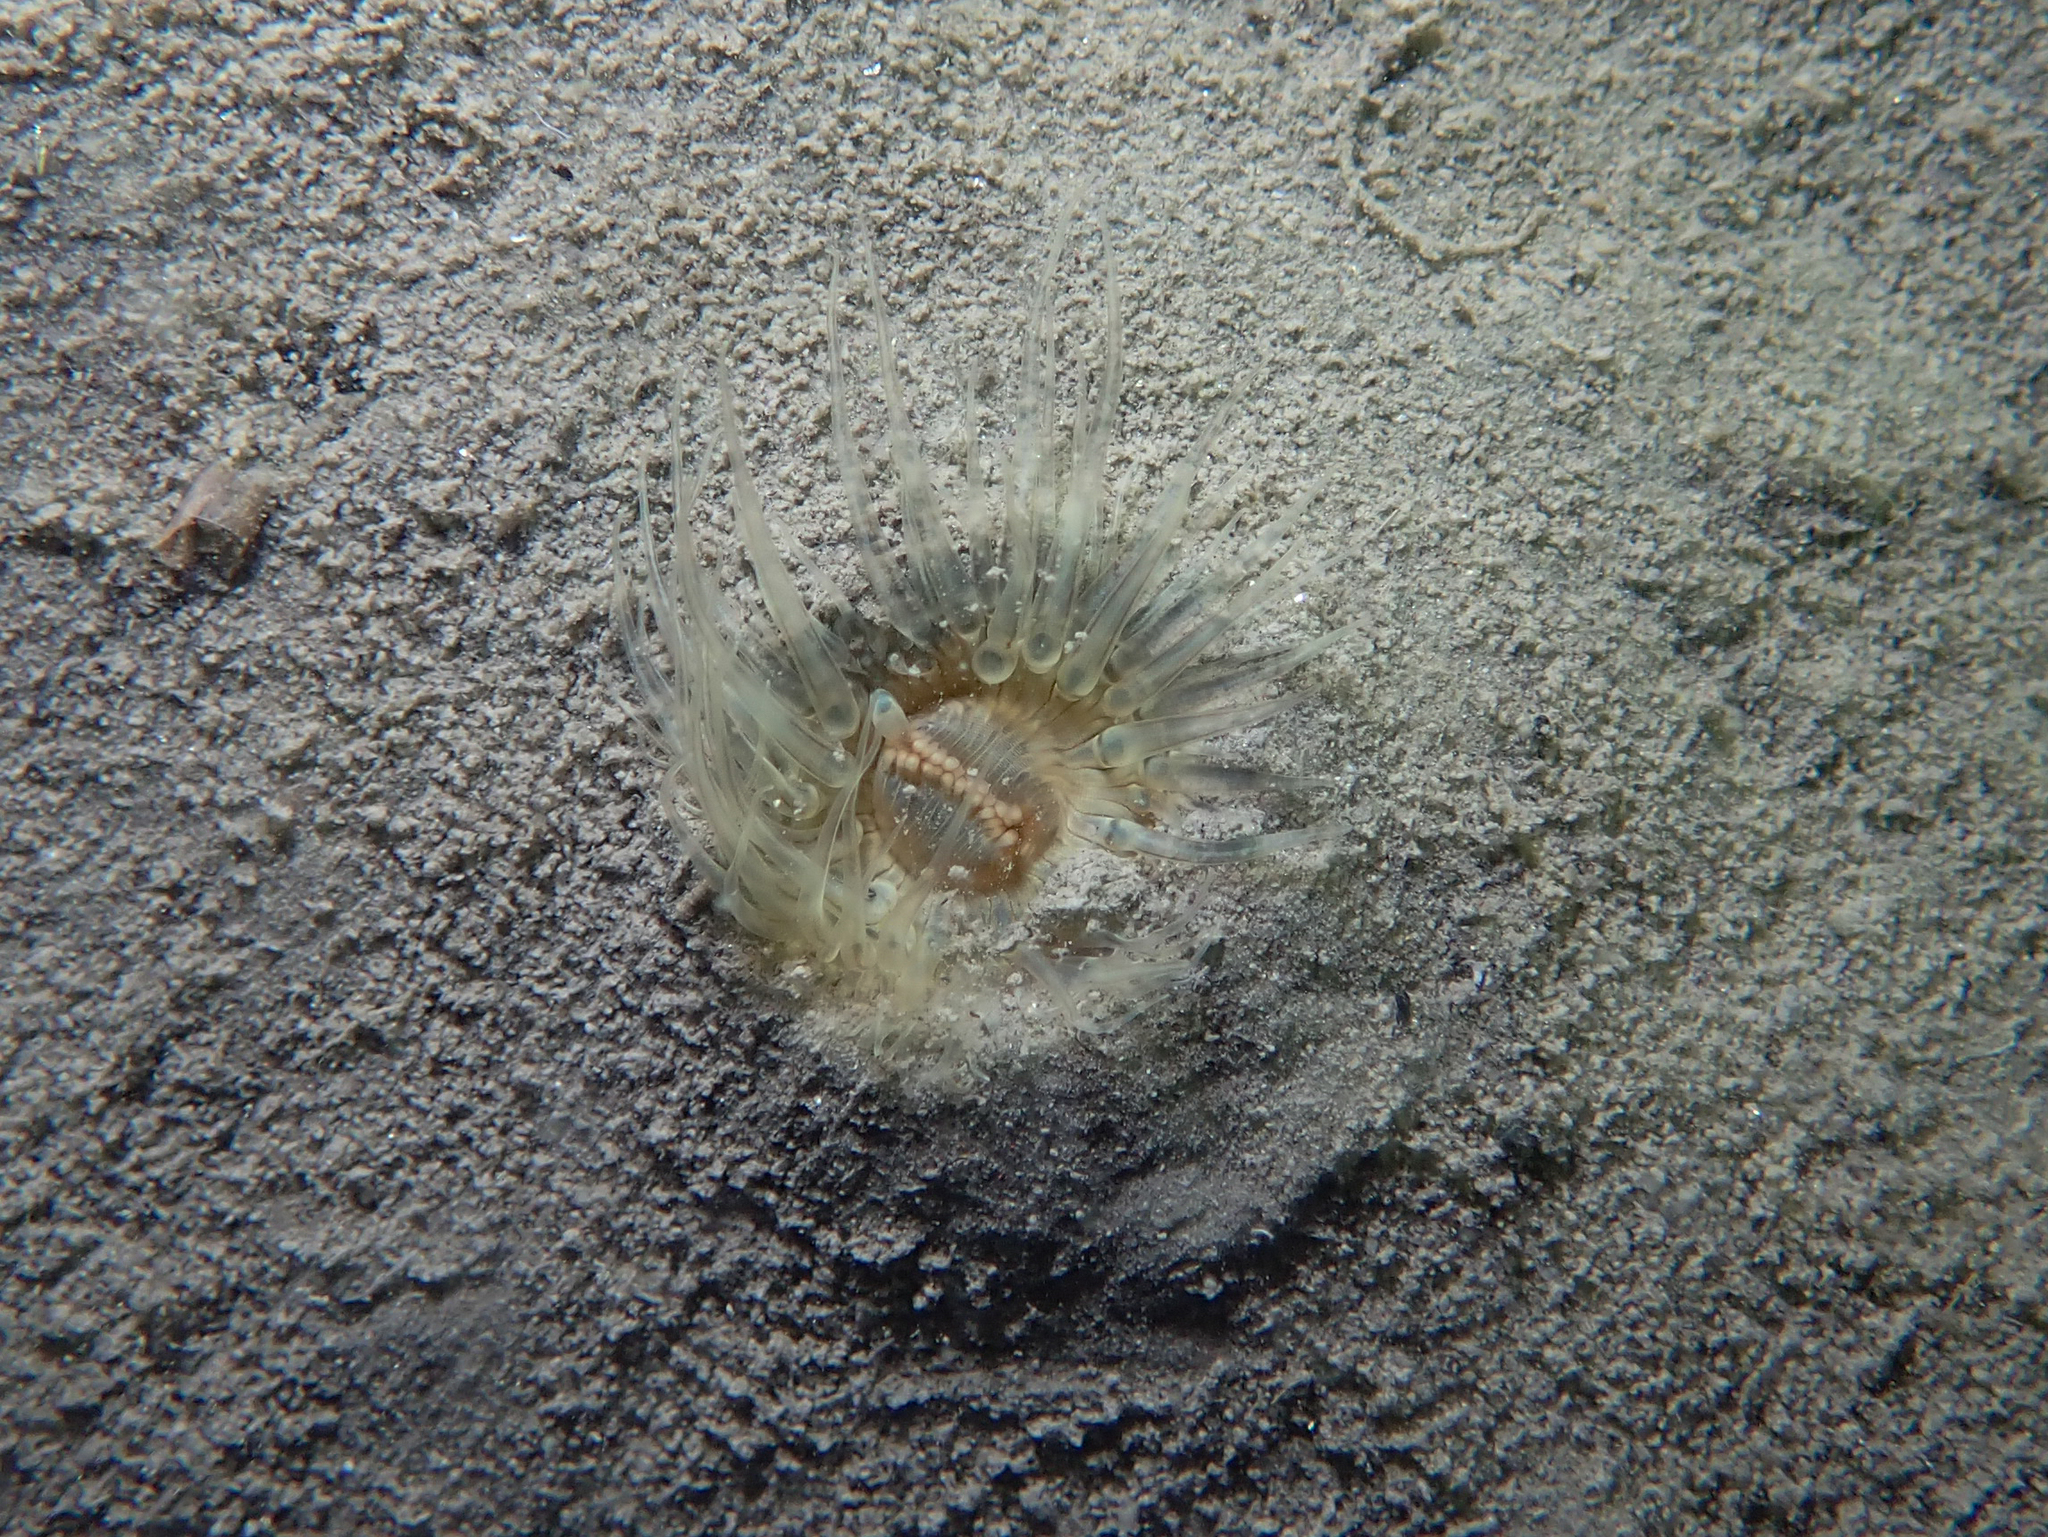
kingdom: Animalia
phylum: Cnidaria
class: Anthozoa
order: Actiniaria
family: Sagartiidae
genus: Sagartia
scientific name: Sagartia undata
